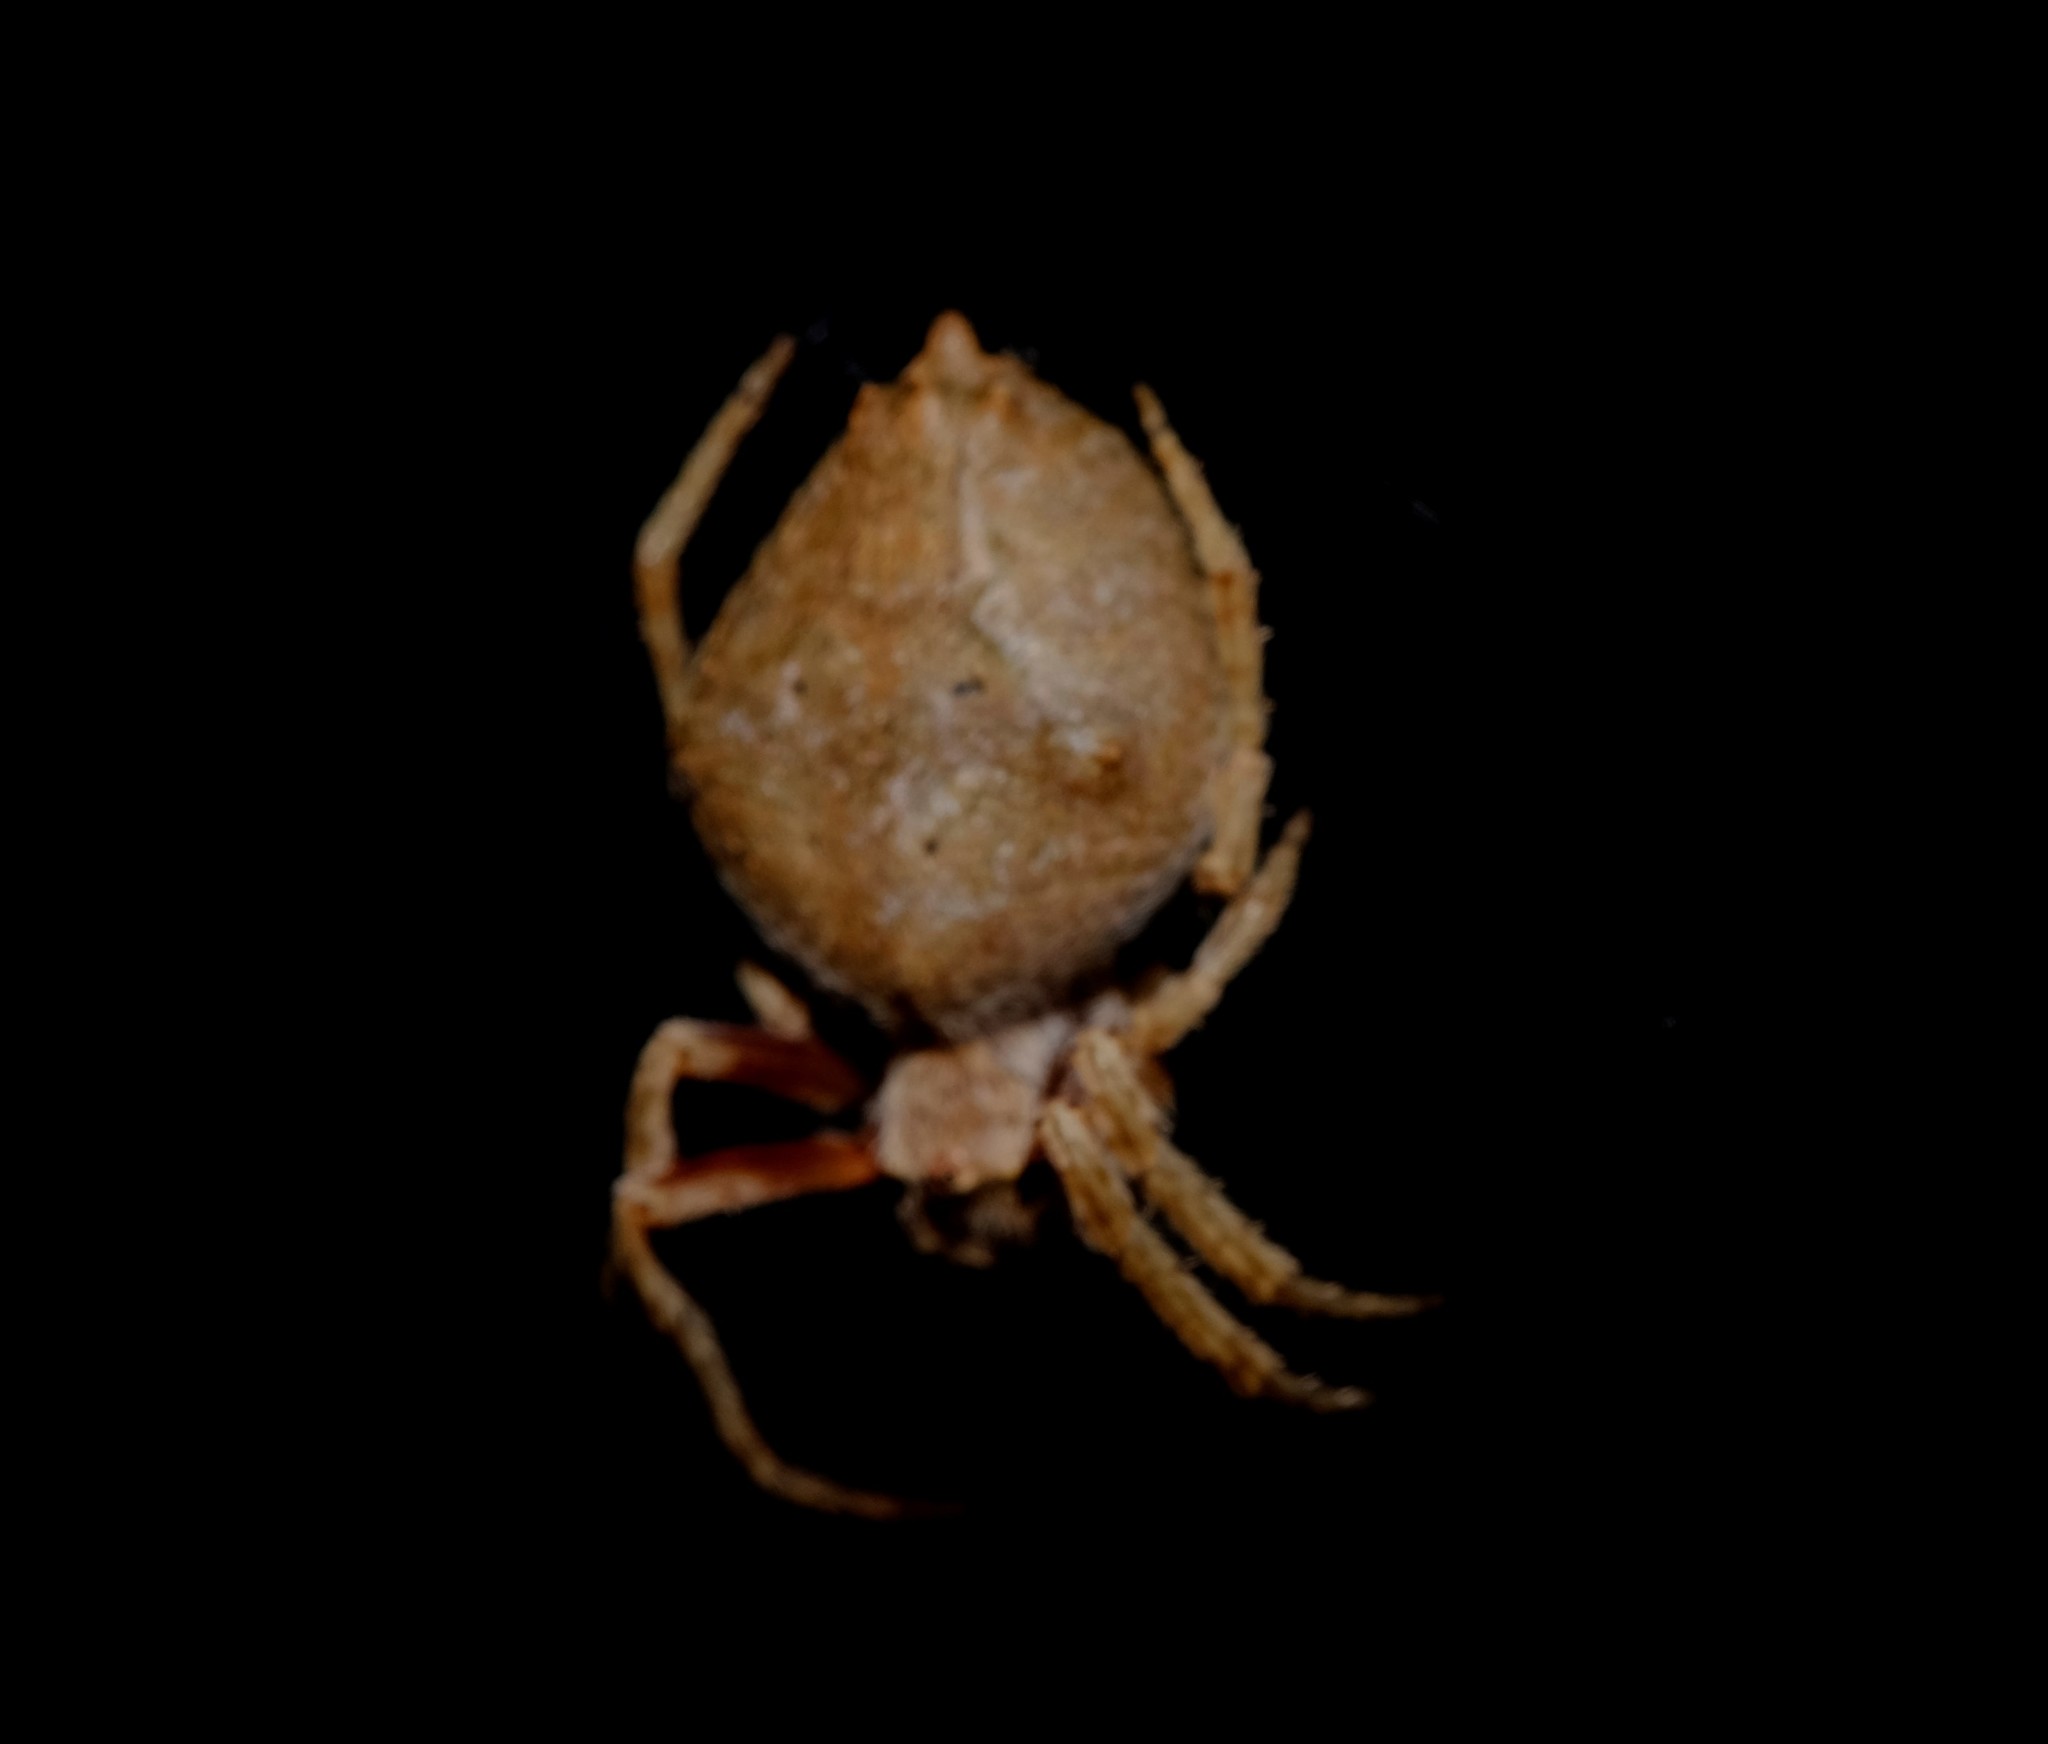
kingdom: Animalia
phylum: Arthropoda
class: Arachnida
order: Araneae
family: Araneidae
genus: Eriophora
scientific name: Eriophora pustulosa
